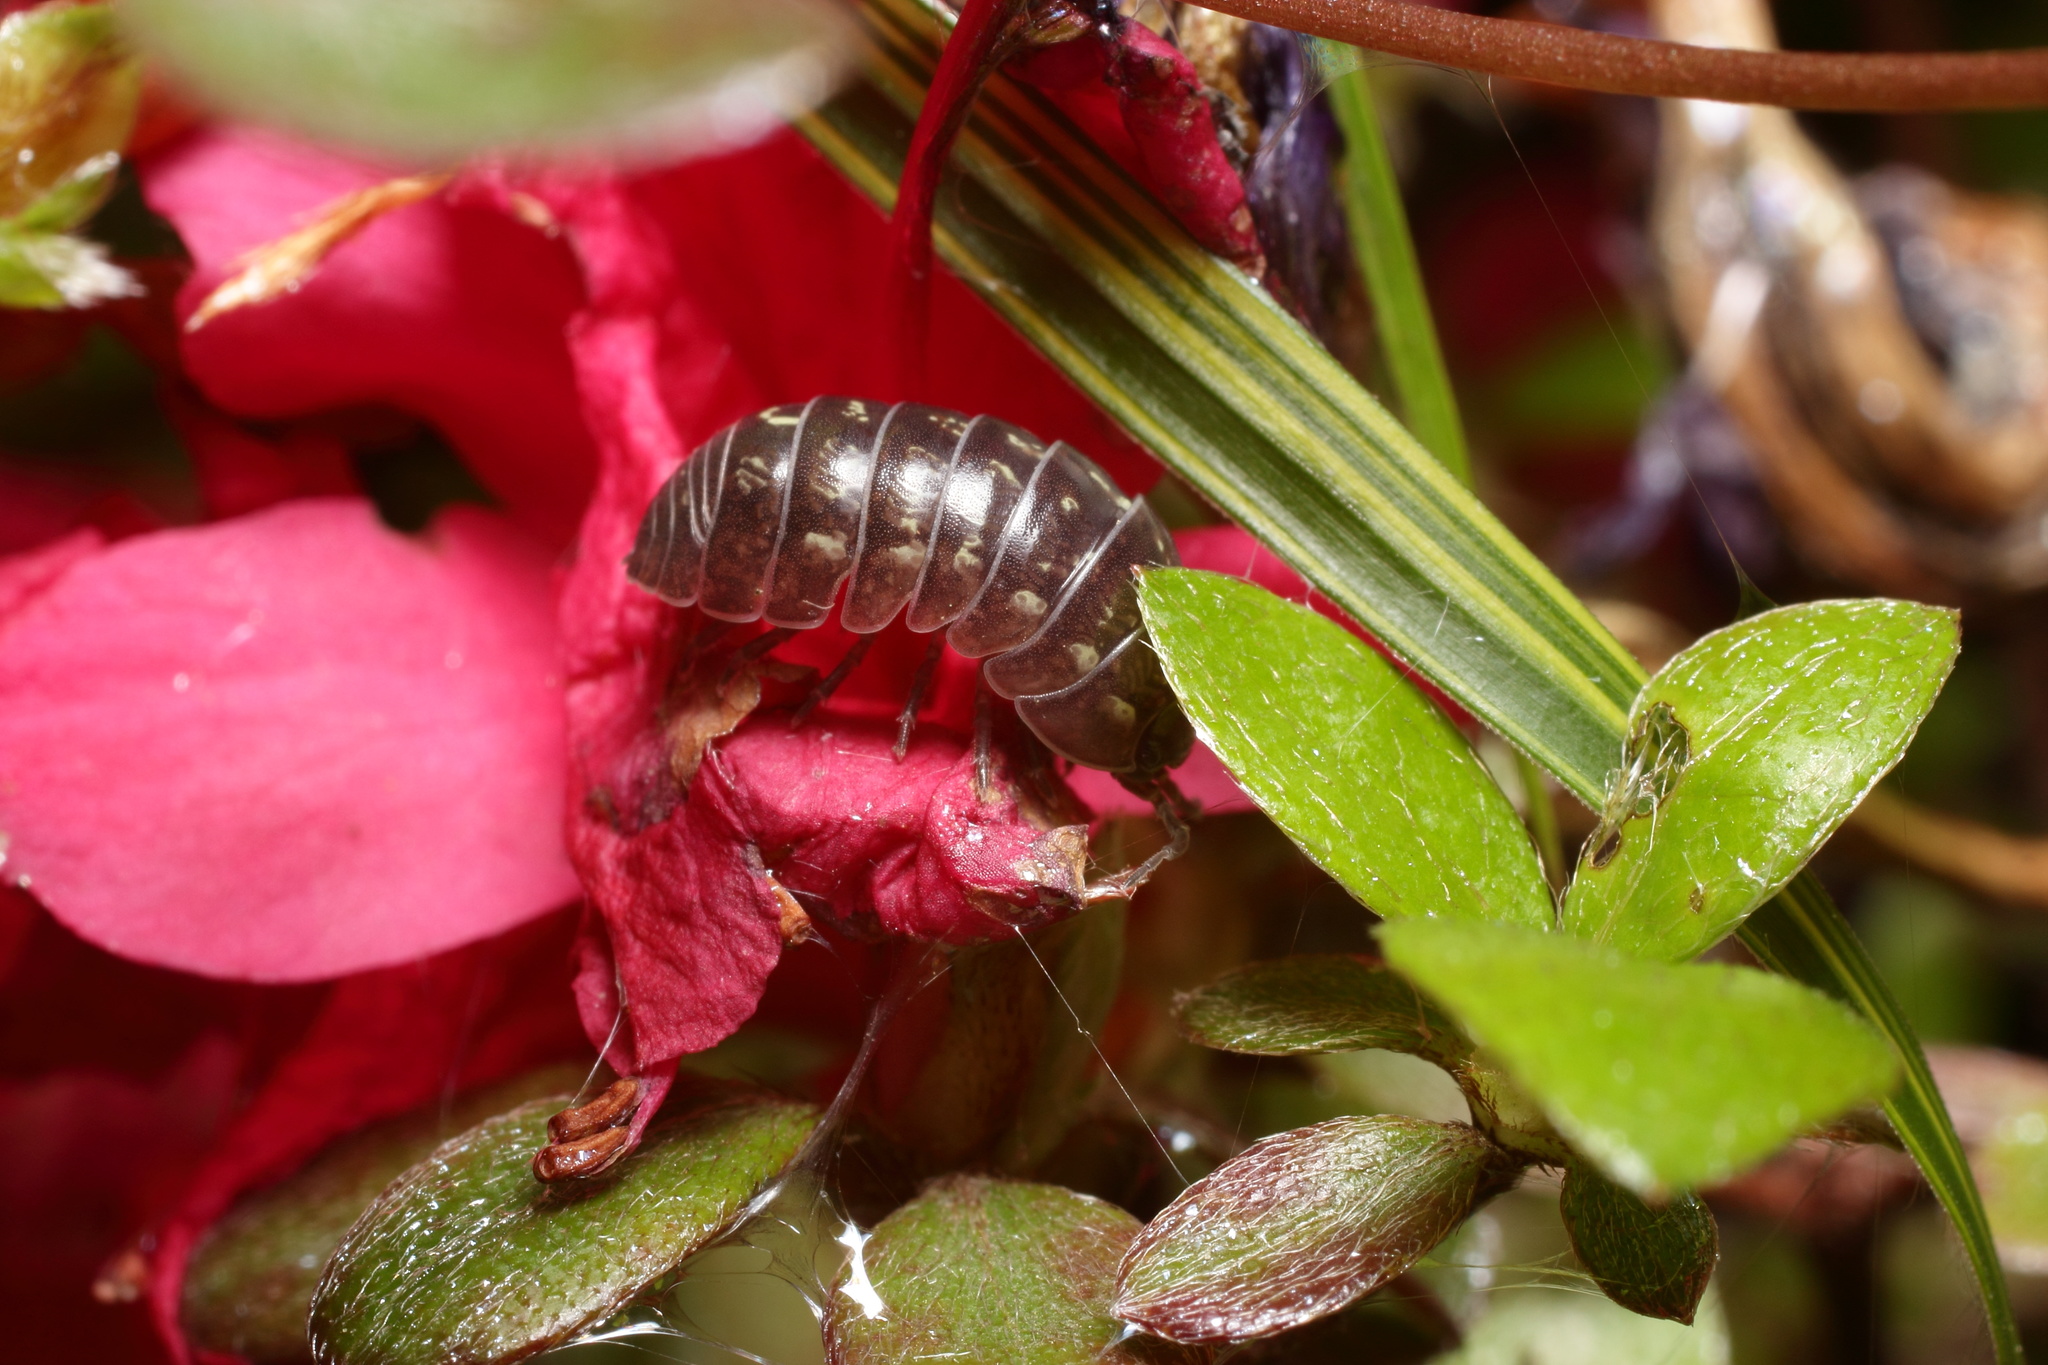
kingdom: Animalia
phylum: Arthropoda
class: Malacostraca
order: Isopoda
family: Armadillidiidae
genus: Armadillidium
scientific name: Armadillidium vulgare
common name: Common pill woodlouse
